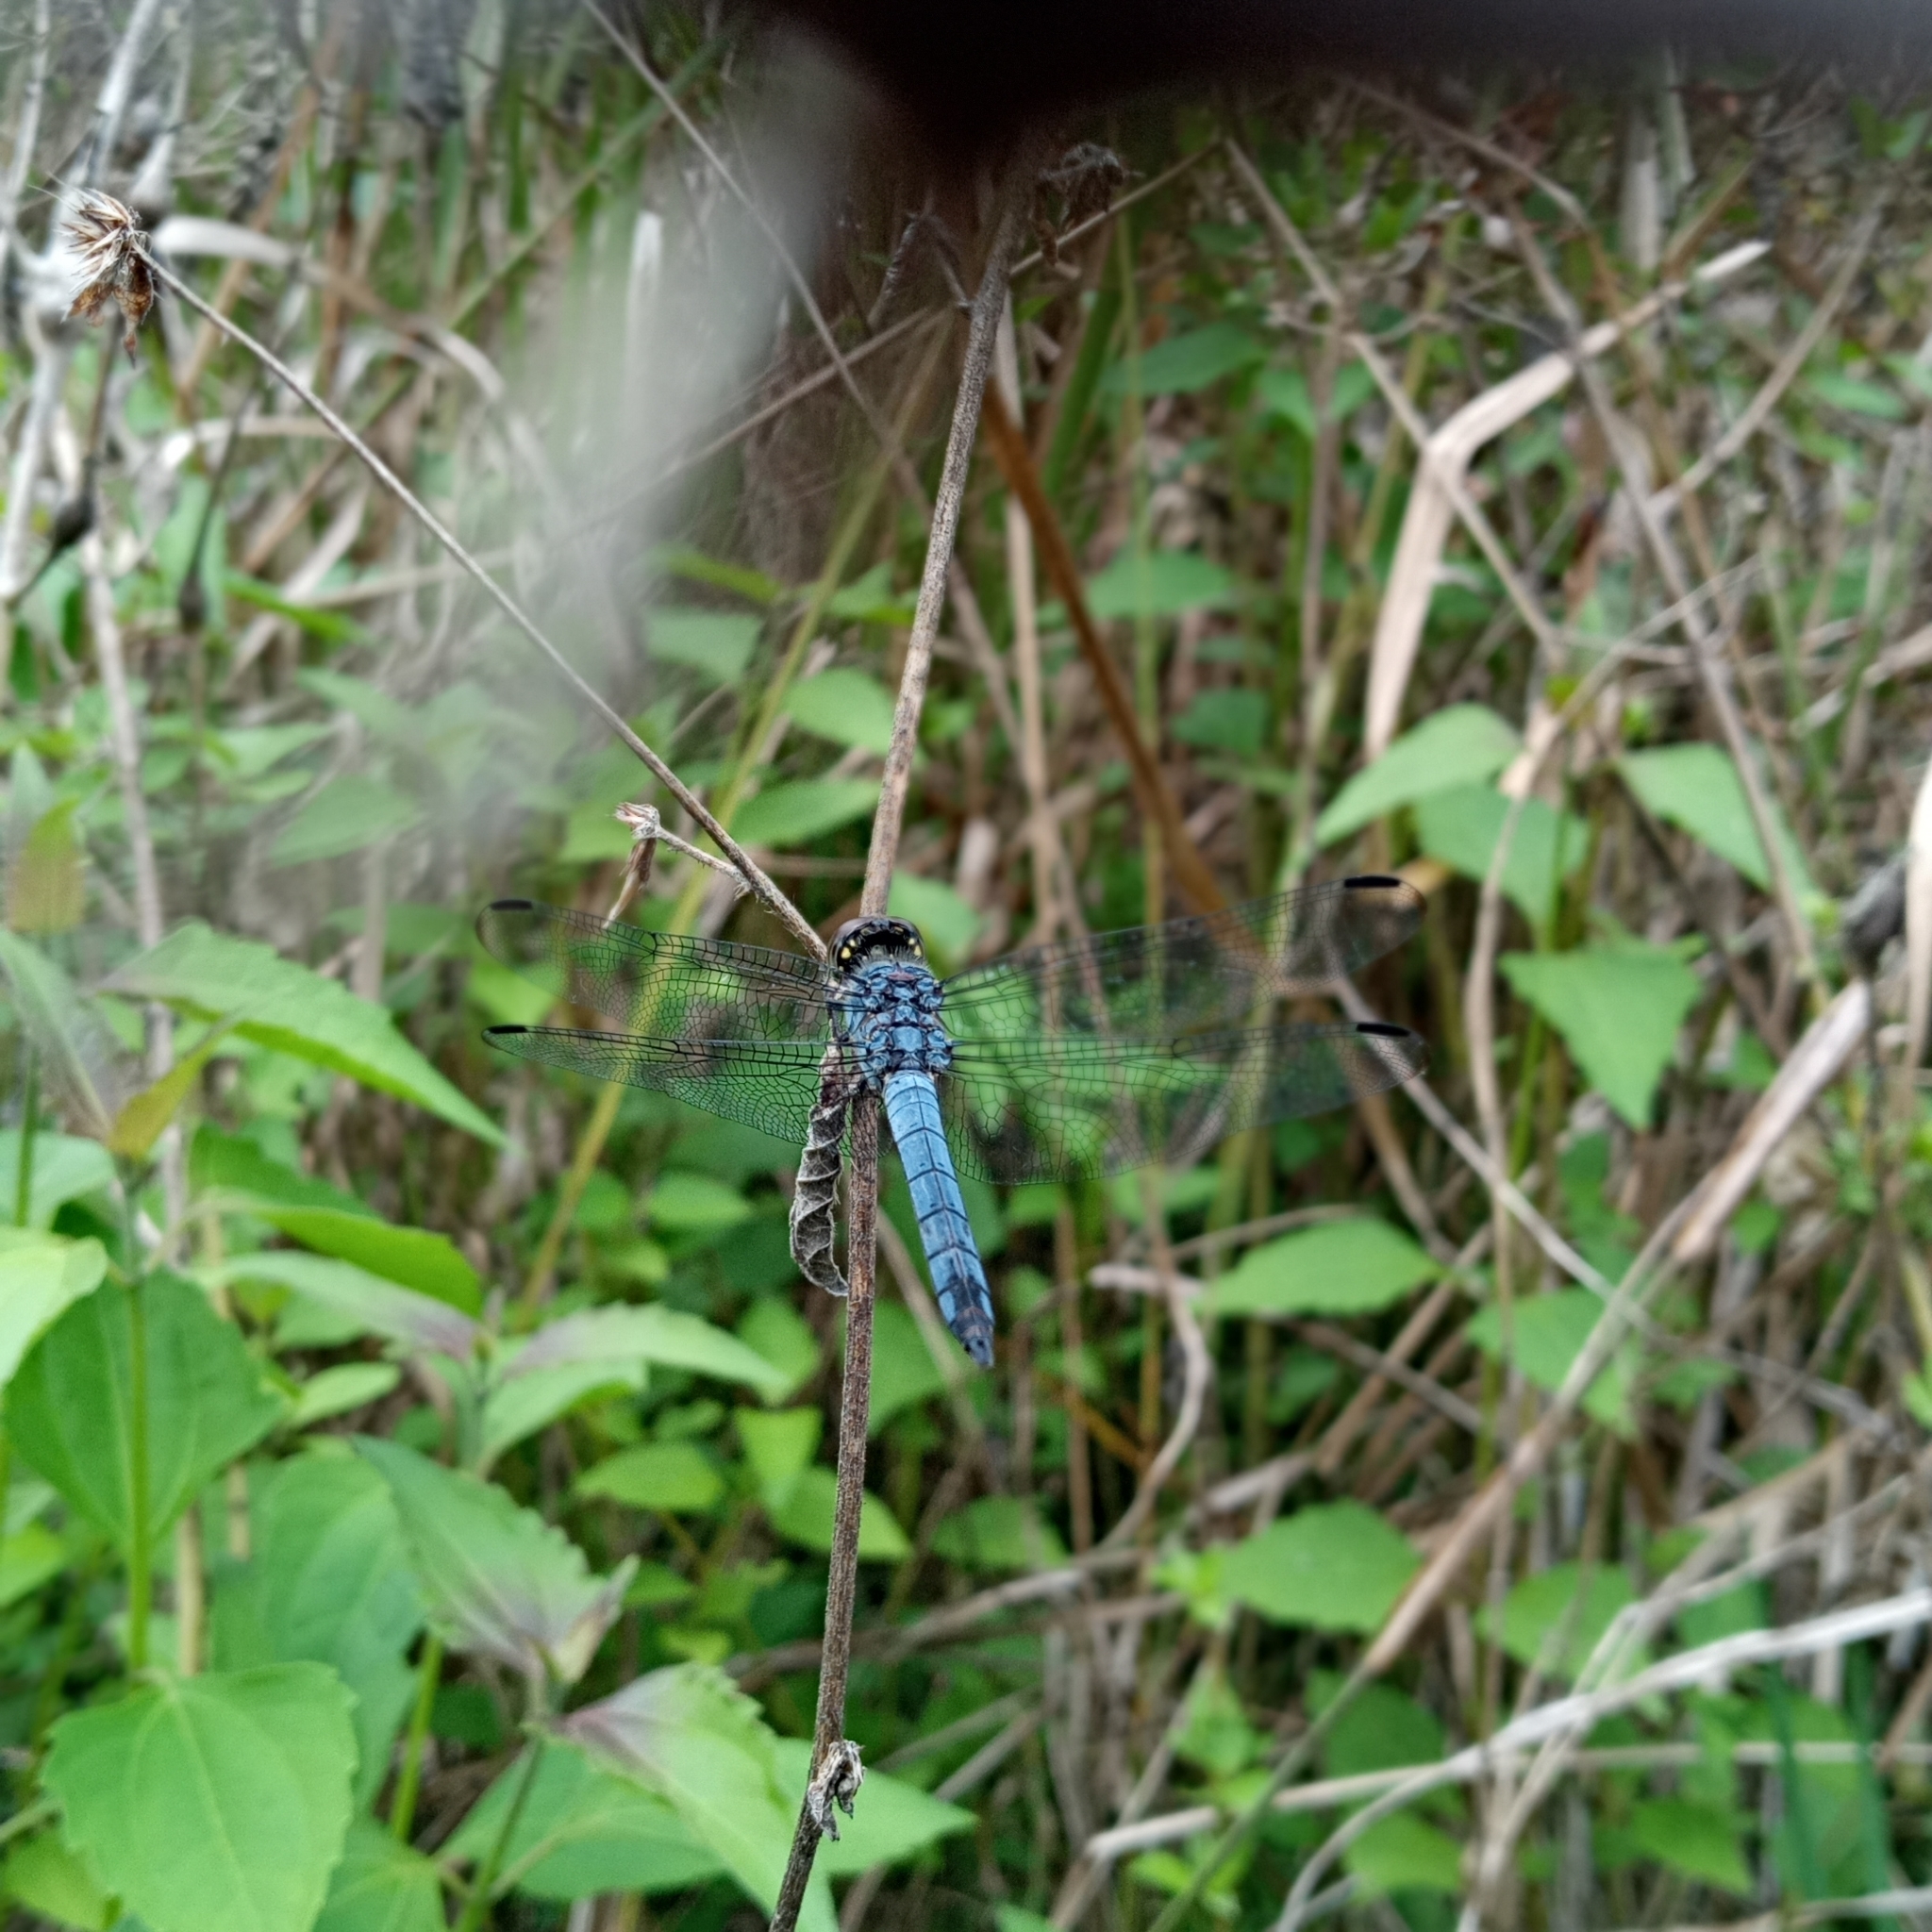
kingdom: Animalia
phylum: Arthropoda
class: Insecta
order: Odonata
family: Libellulidae
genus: Potamarcha
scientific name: Potamarcha congener
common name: Blue chaser
